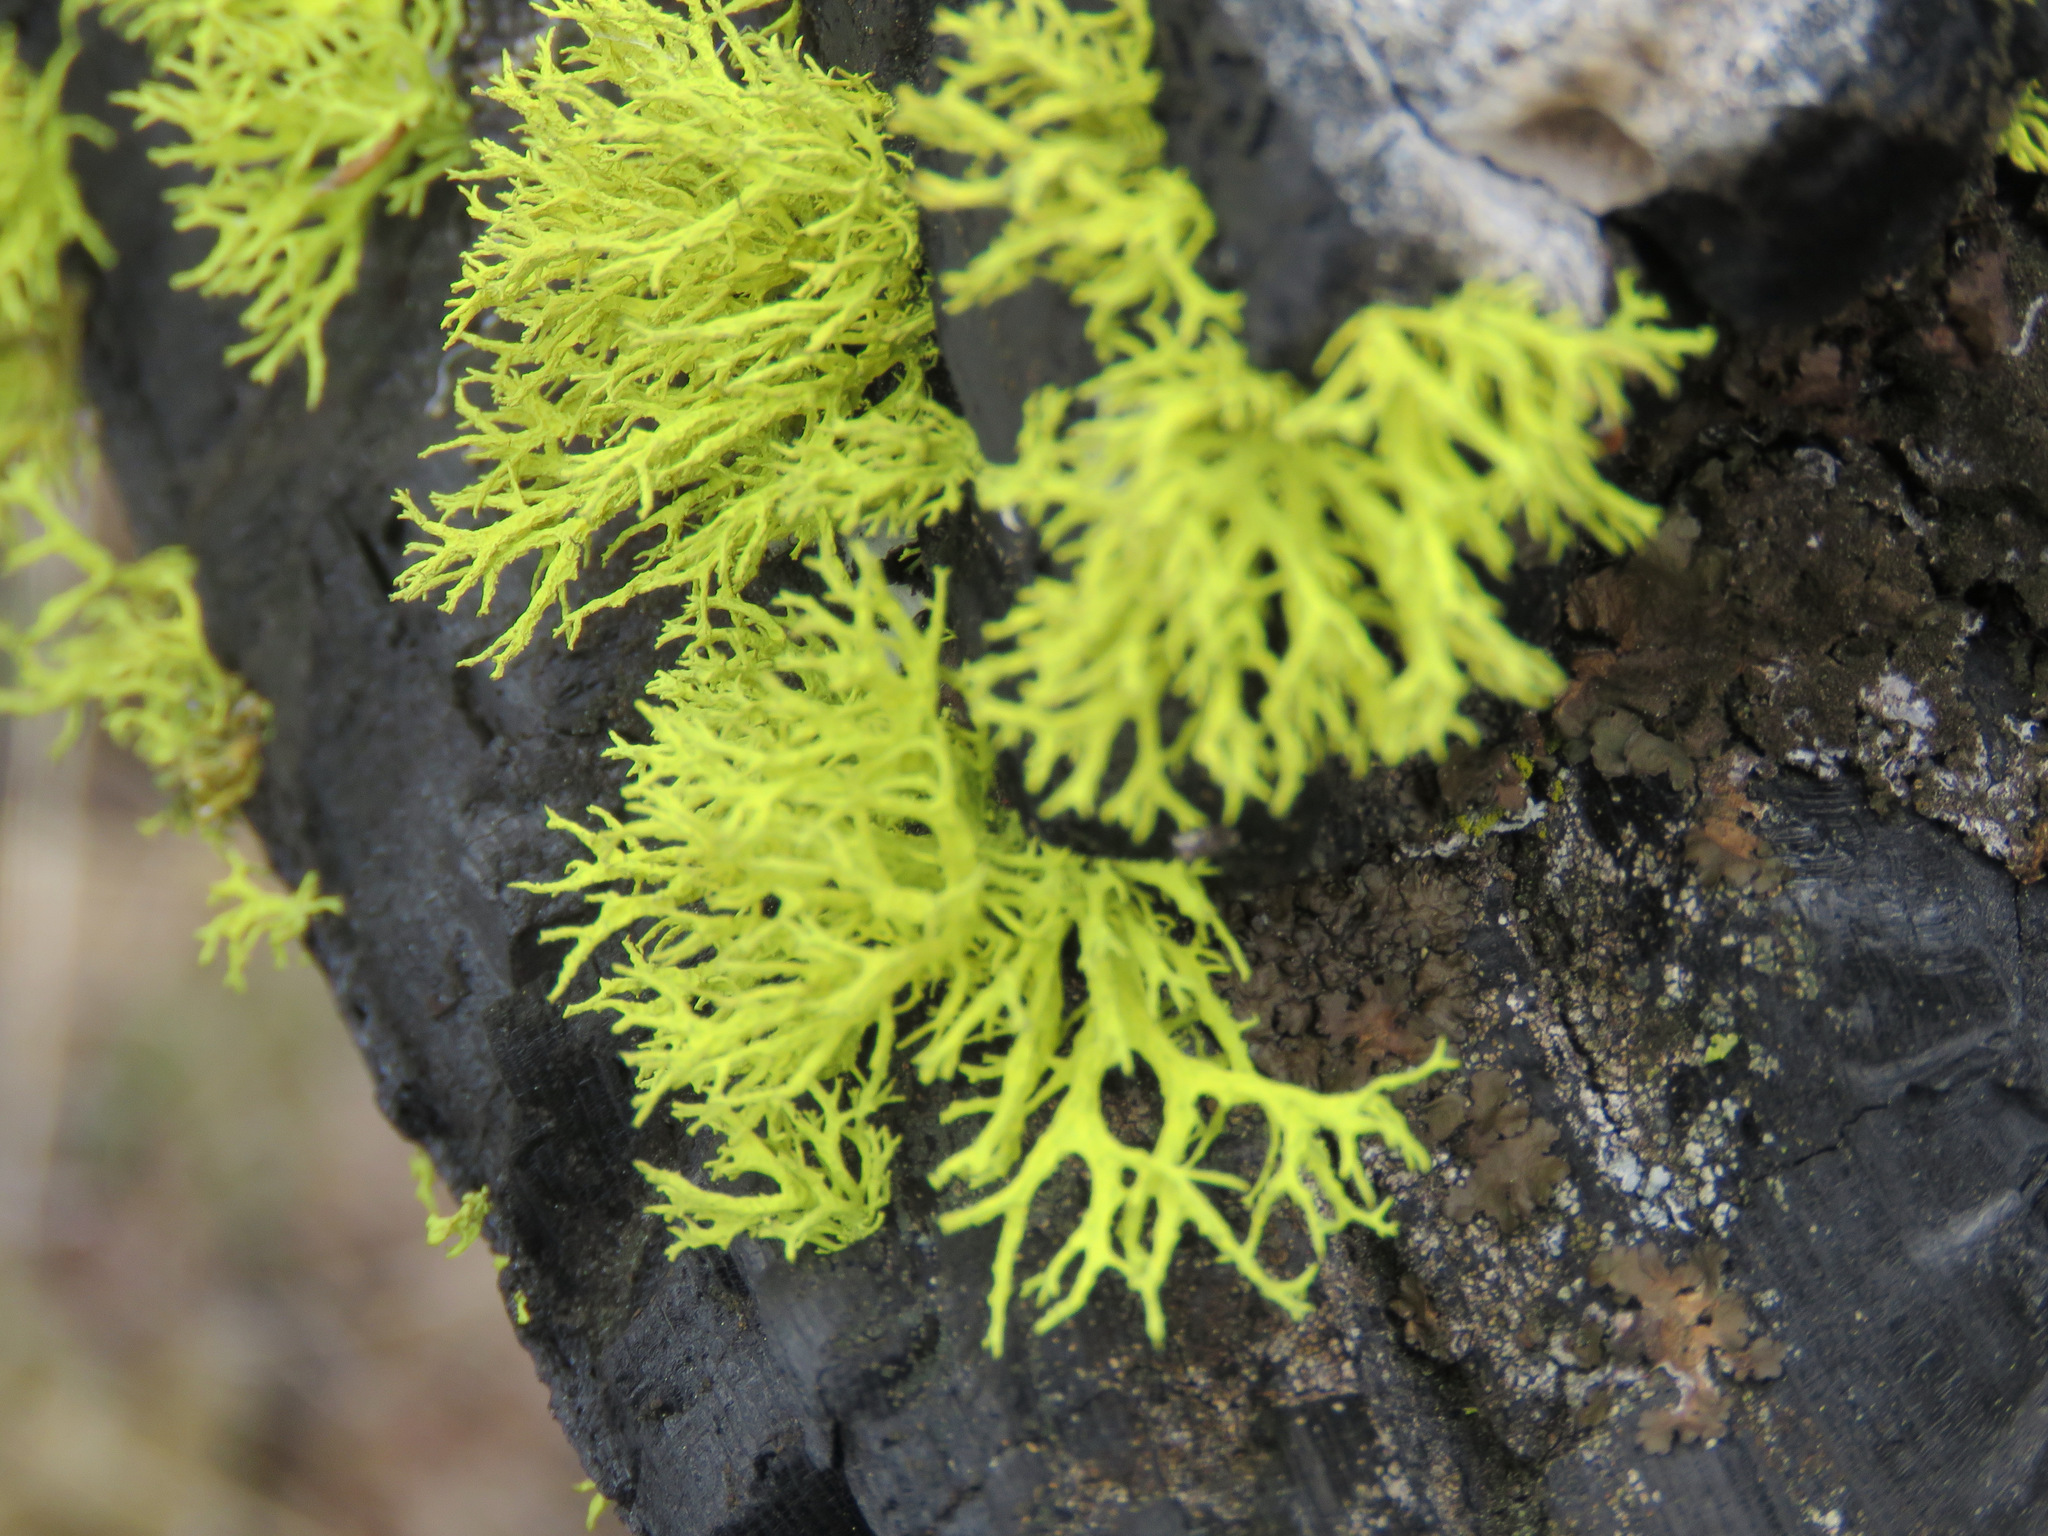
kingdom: Fungi
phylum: Ascomycota
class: Lecanoromycetes
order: Lecanorales
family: Parmeliaceae
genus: Letharia
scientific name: Letharia vulpina
